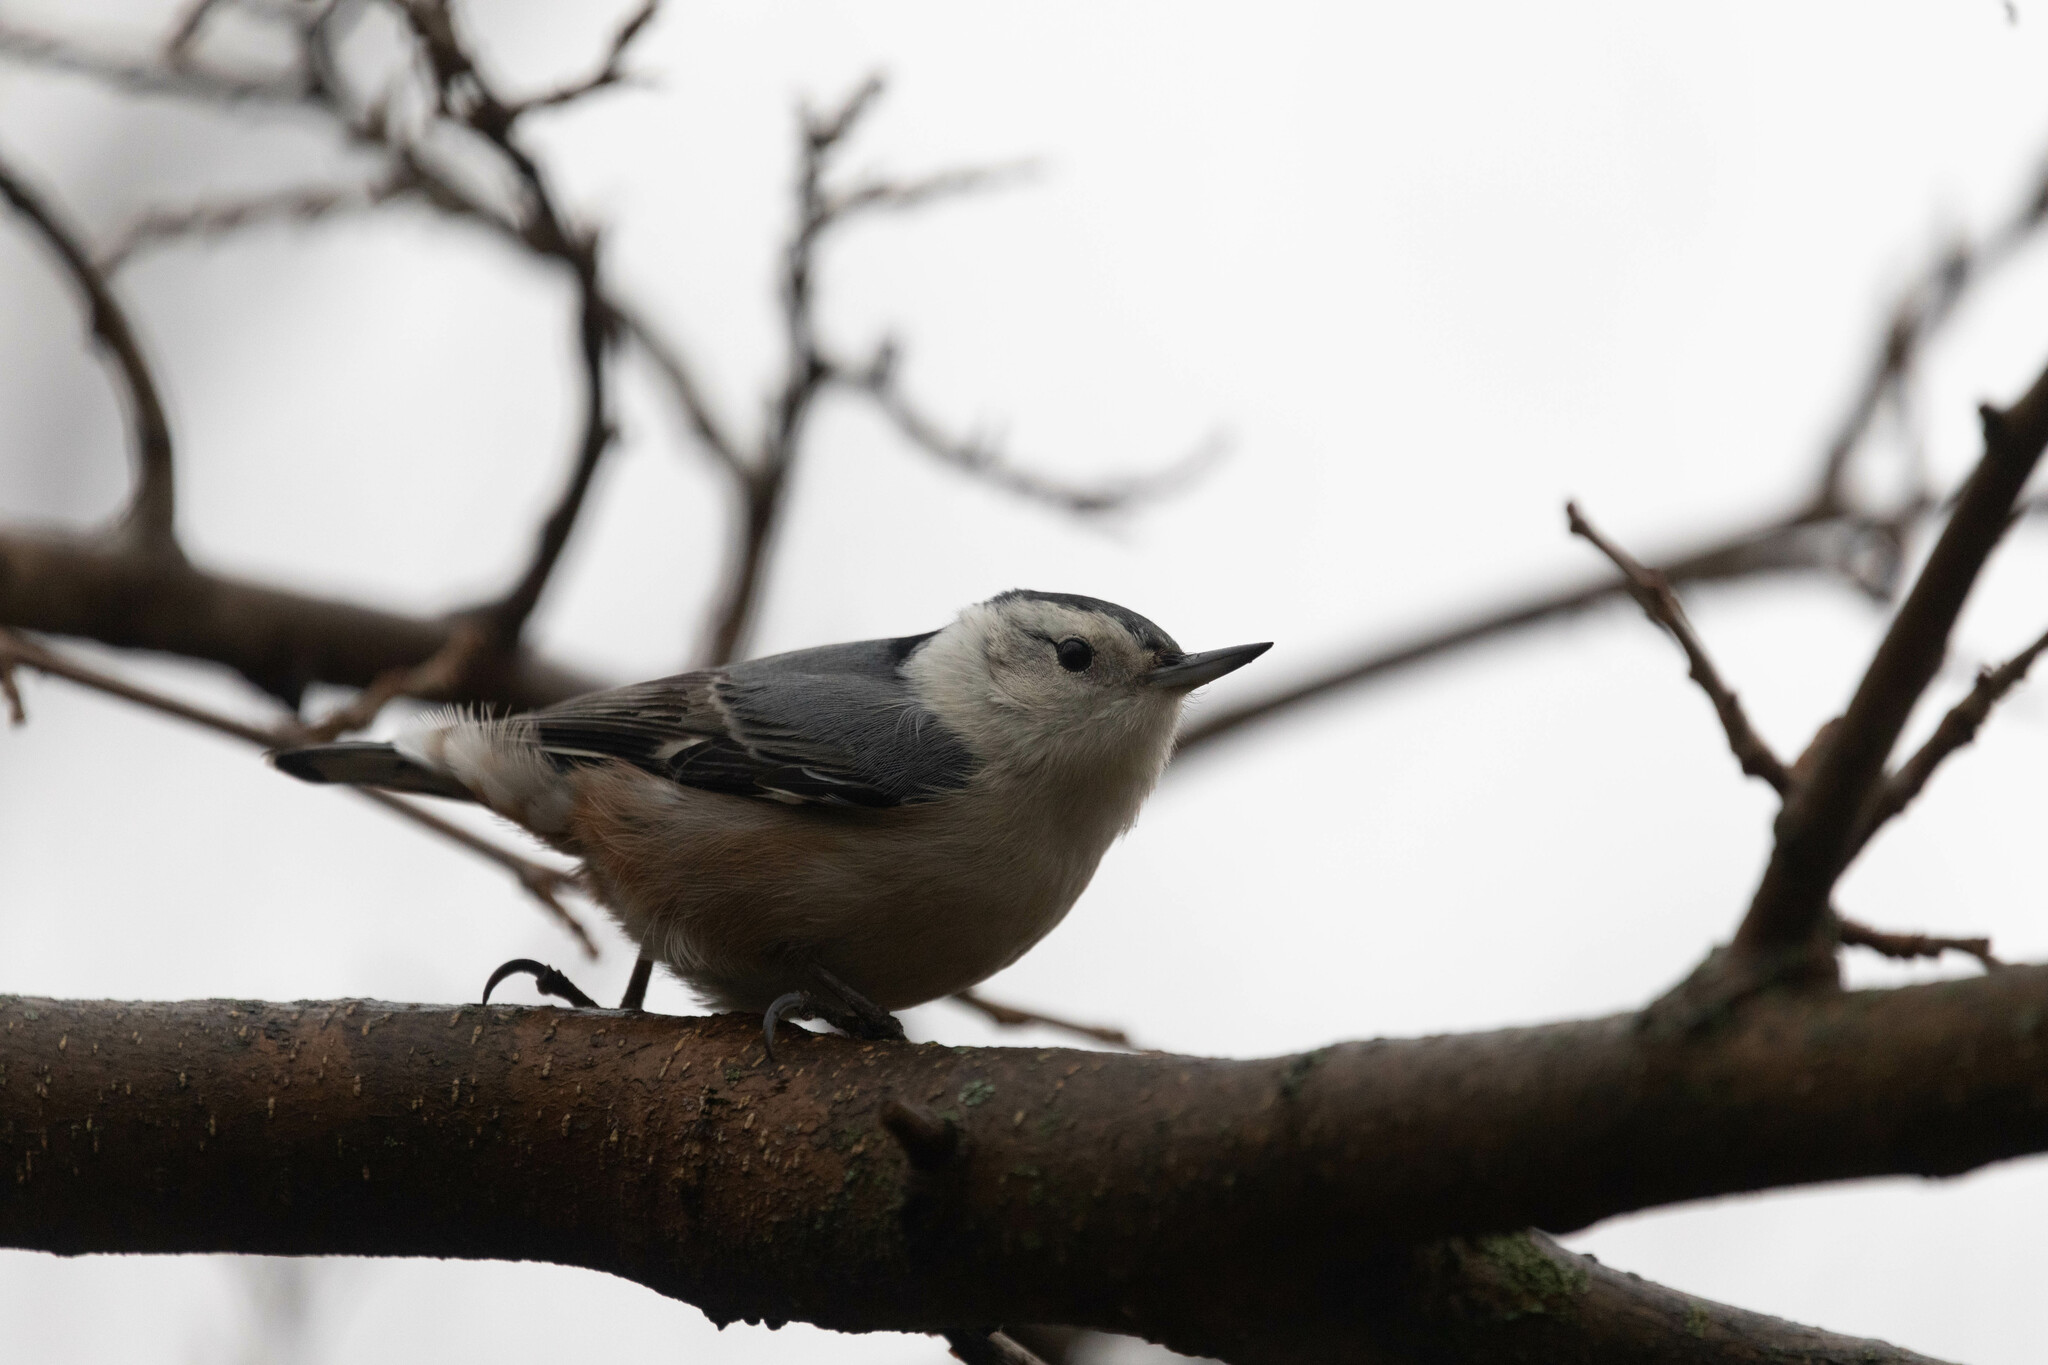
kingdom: Animalia
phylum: Chordata
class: Aves
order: Passeriformes
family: Sittidae
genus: Sitta
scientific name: Sitta carolinensis
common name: White-breasted nuthatch
